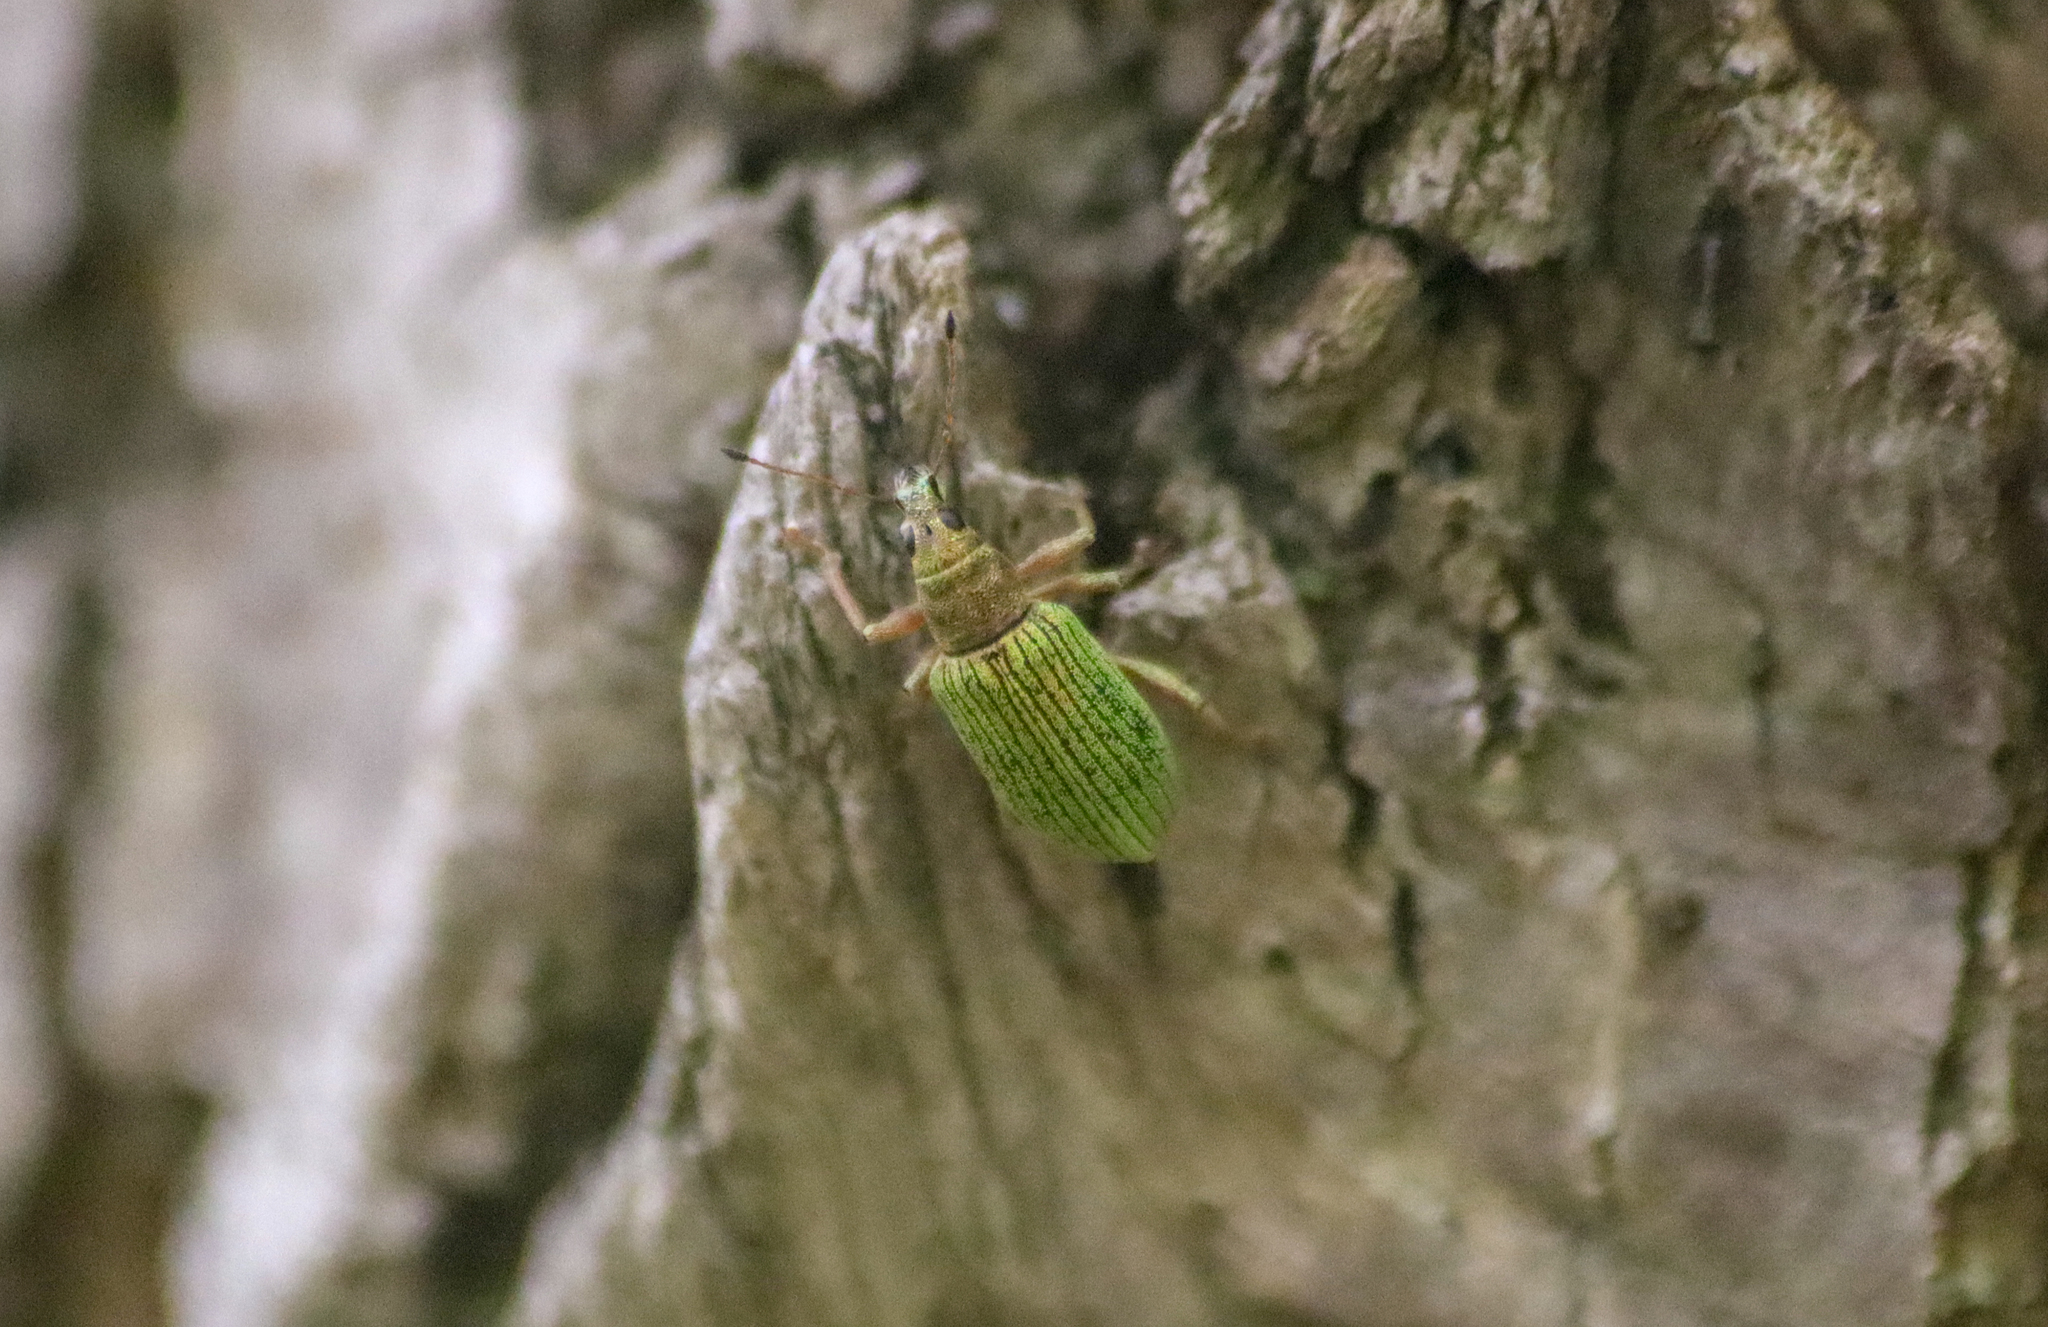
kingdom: Animalia
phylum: Arthropoda
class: Insecta
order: Coleoptera
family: Curculionidae
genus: Polydrusus
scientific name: Polydrusus formosus
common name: Weevil
